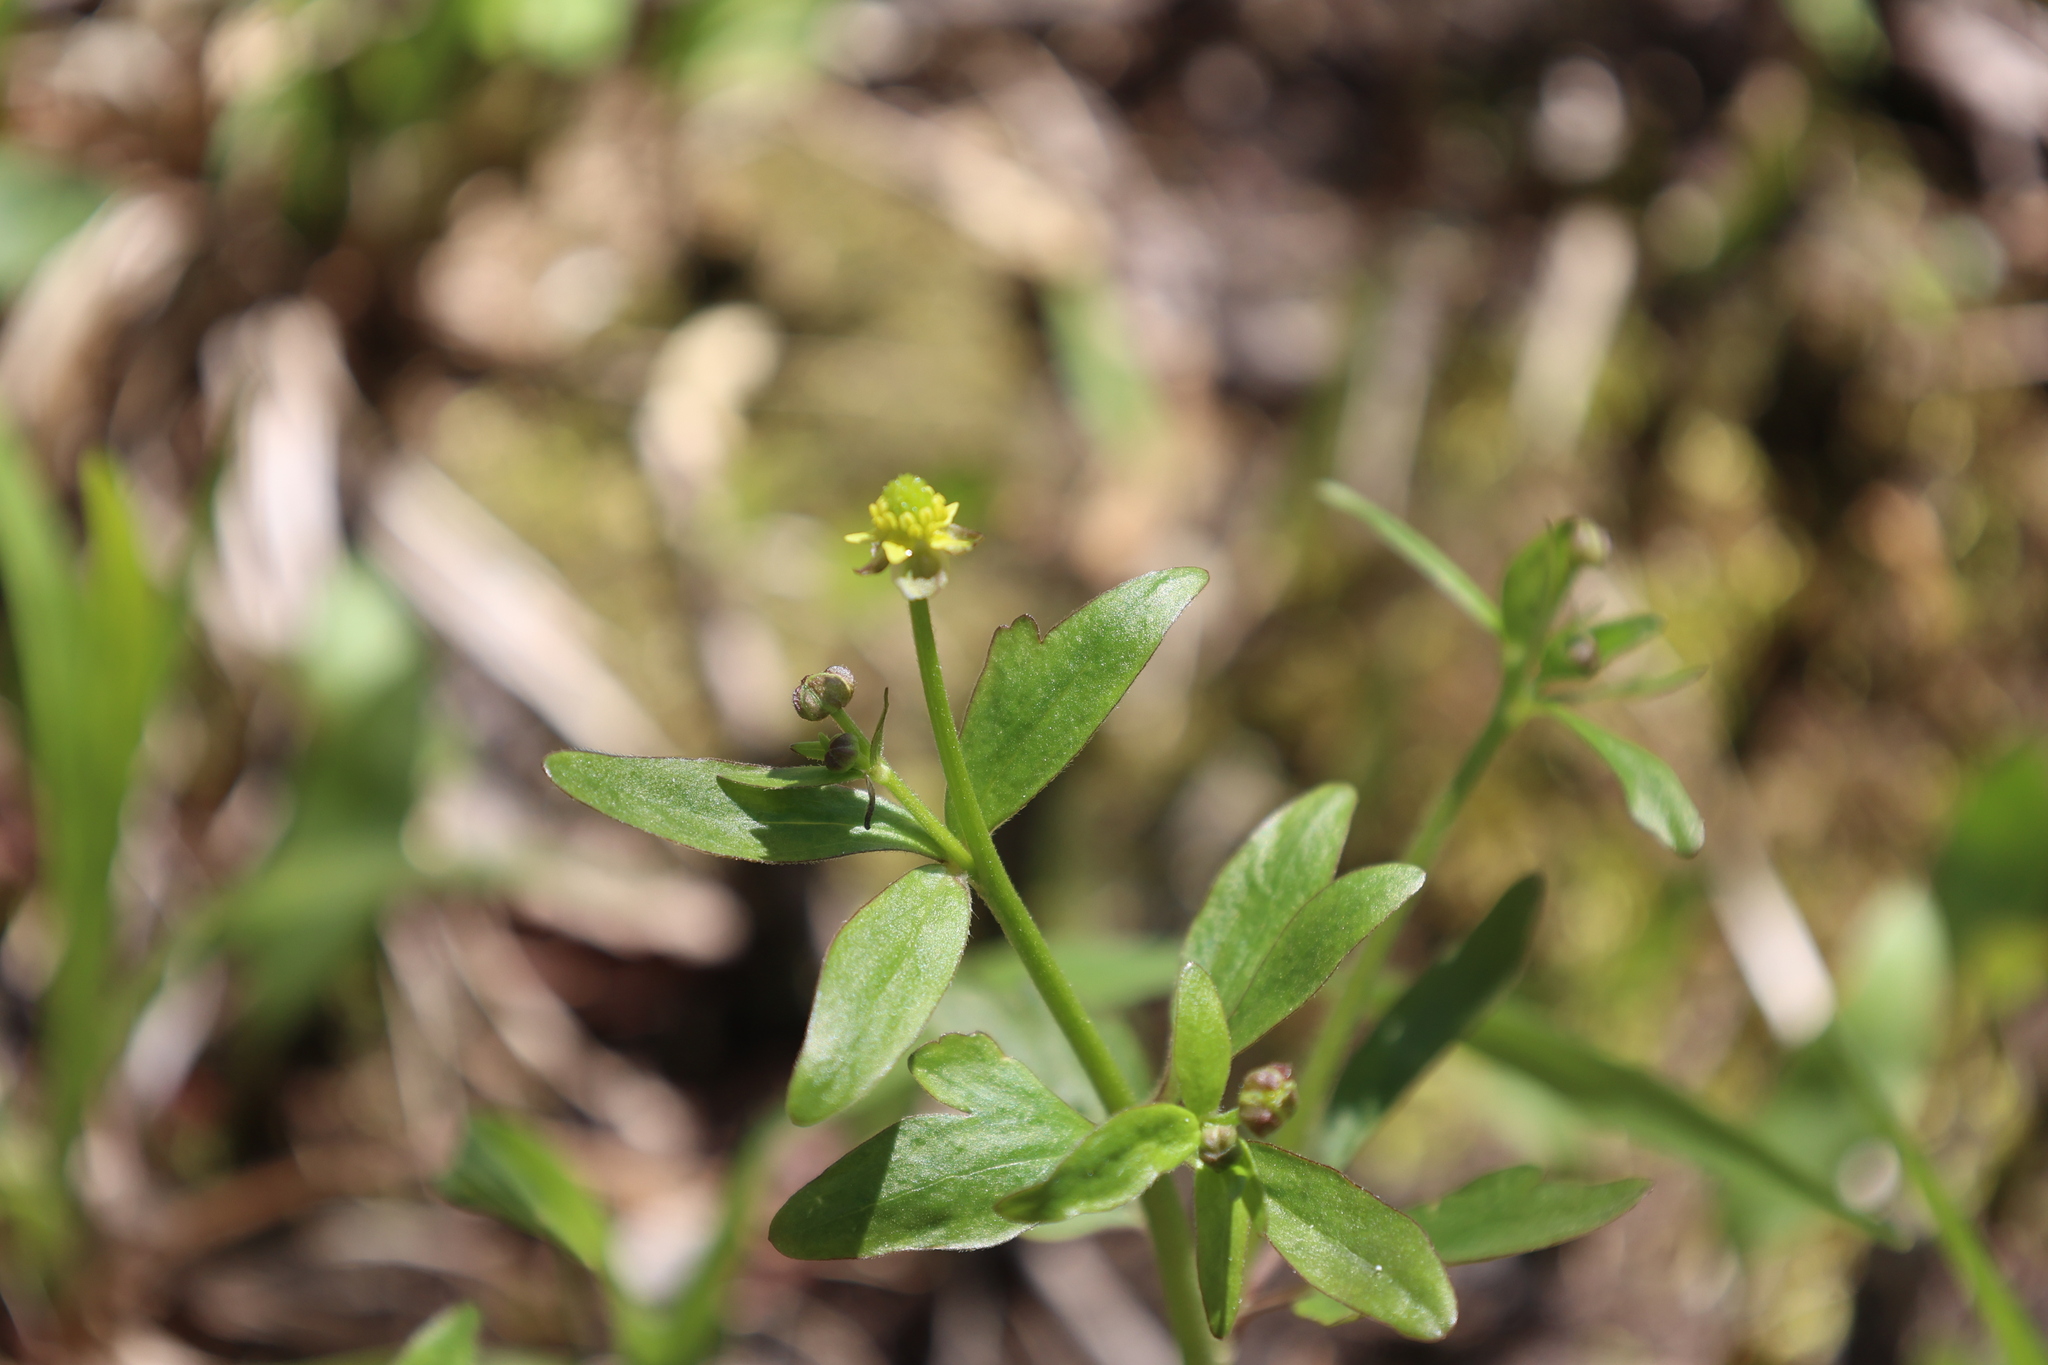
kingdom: Plantae
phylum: Tracheophyta
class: Magnoliopsida
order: Ranunculales
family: Ranunculaceae
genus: Ranunculus
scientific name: Ranunculus abortivus
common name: Early wood buttercup
